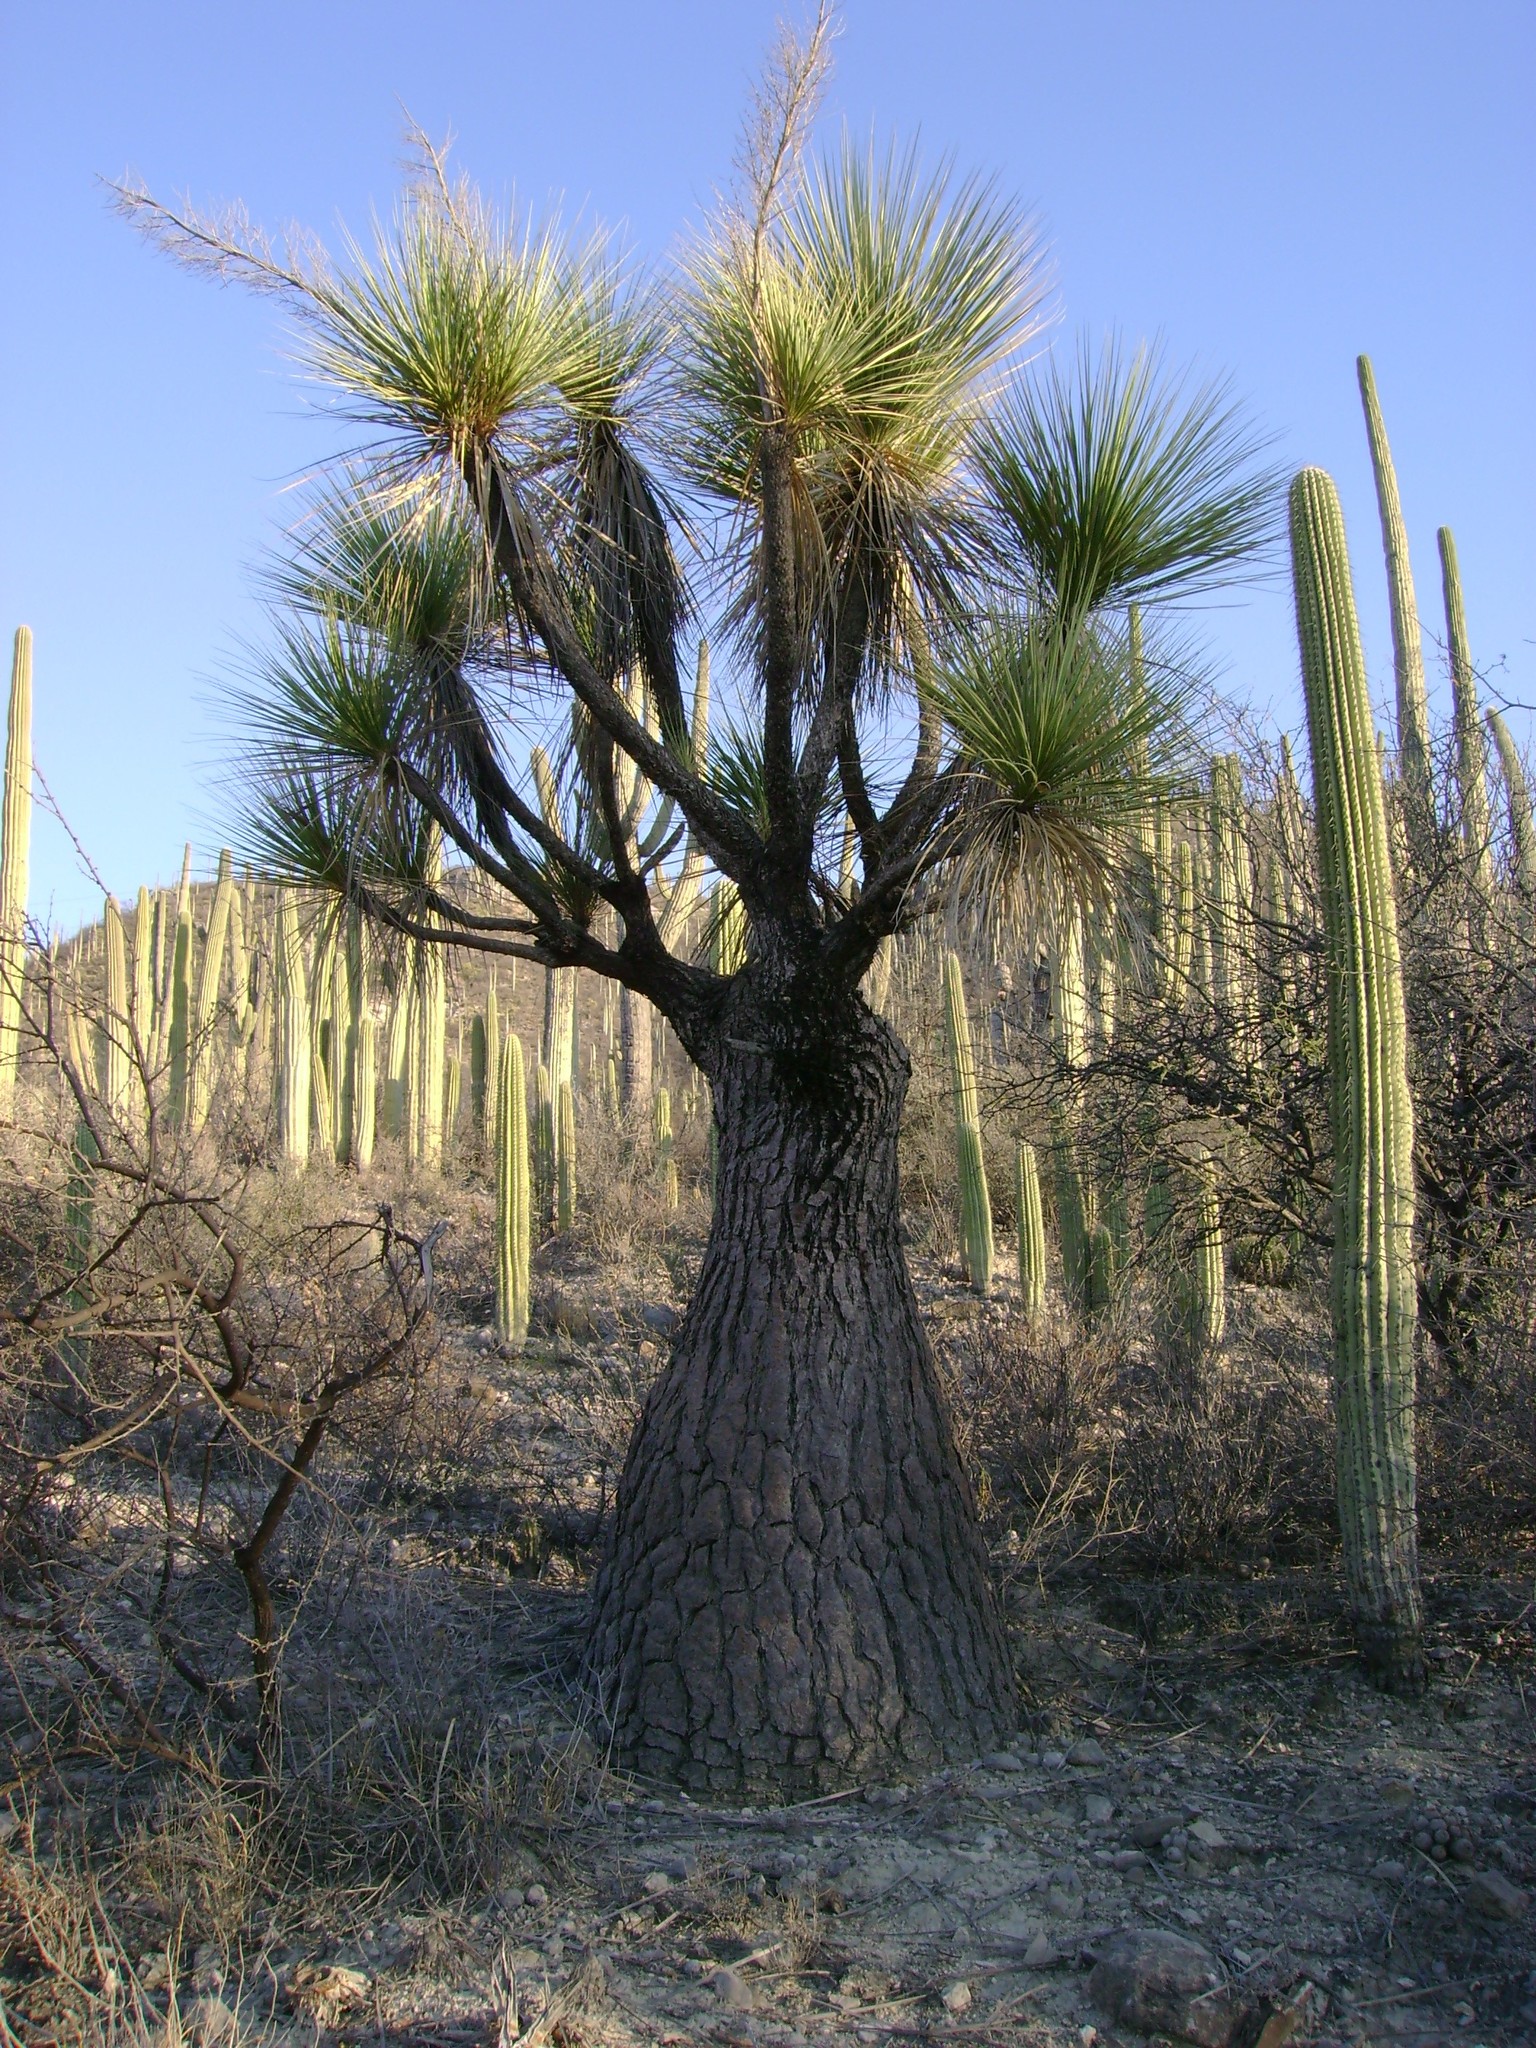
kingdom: Plantae
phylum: Tracheophyta
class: Liliopsida
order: Asparagales
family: Asparagaceae
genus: Beaucarnea
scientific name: Beaucarnea gracilis
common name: Ponytail  palm
